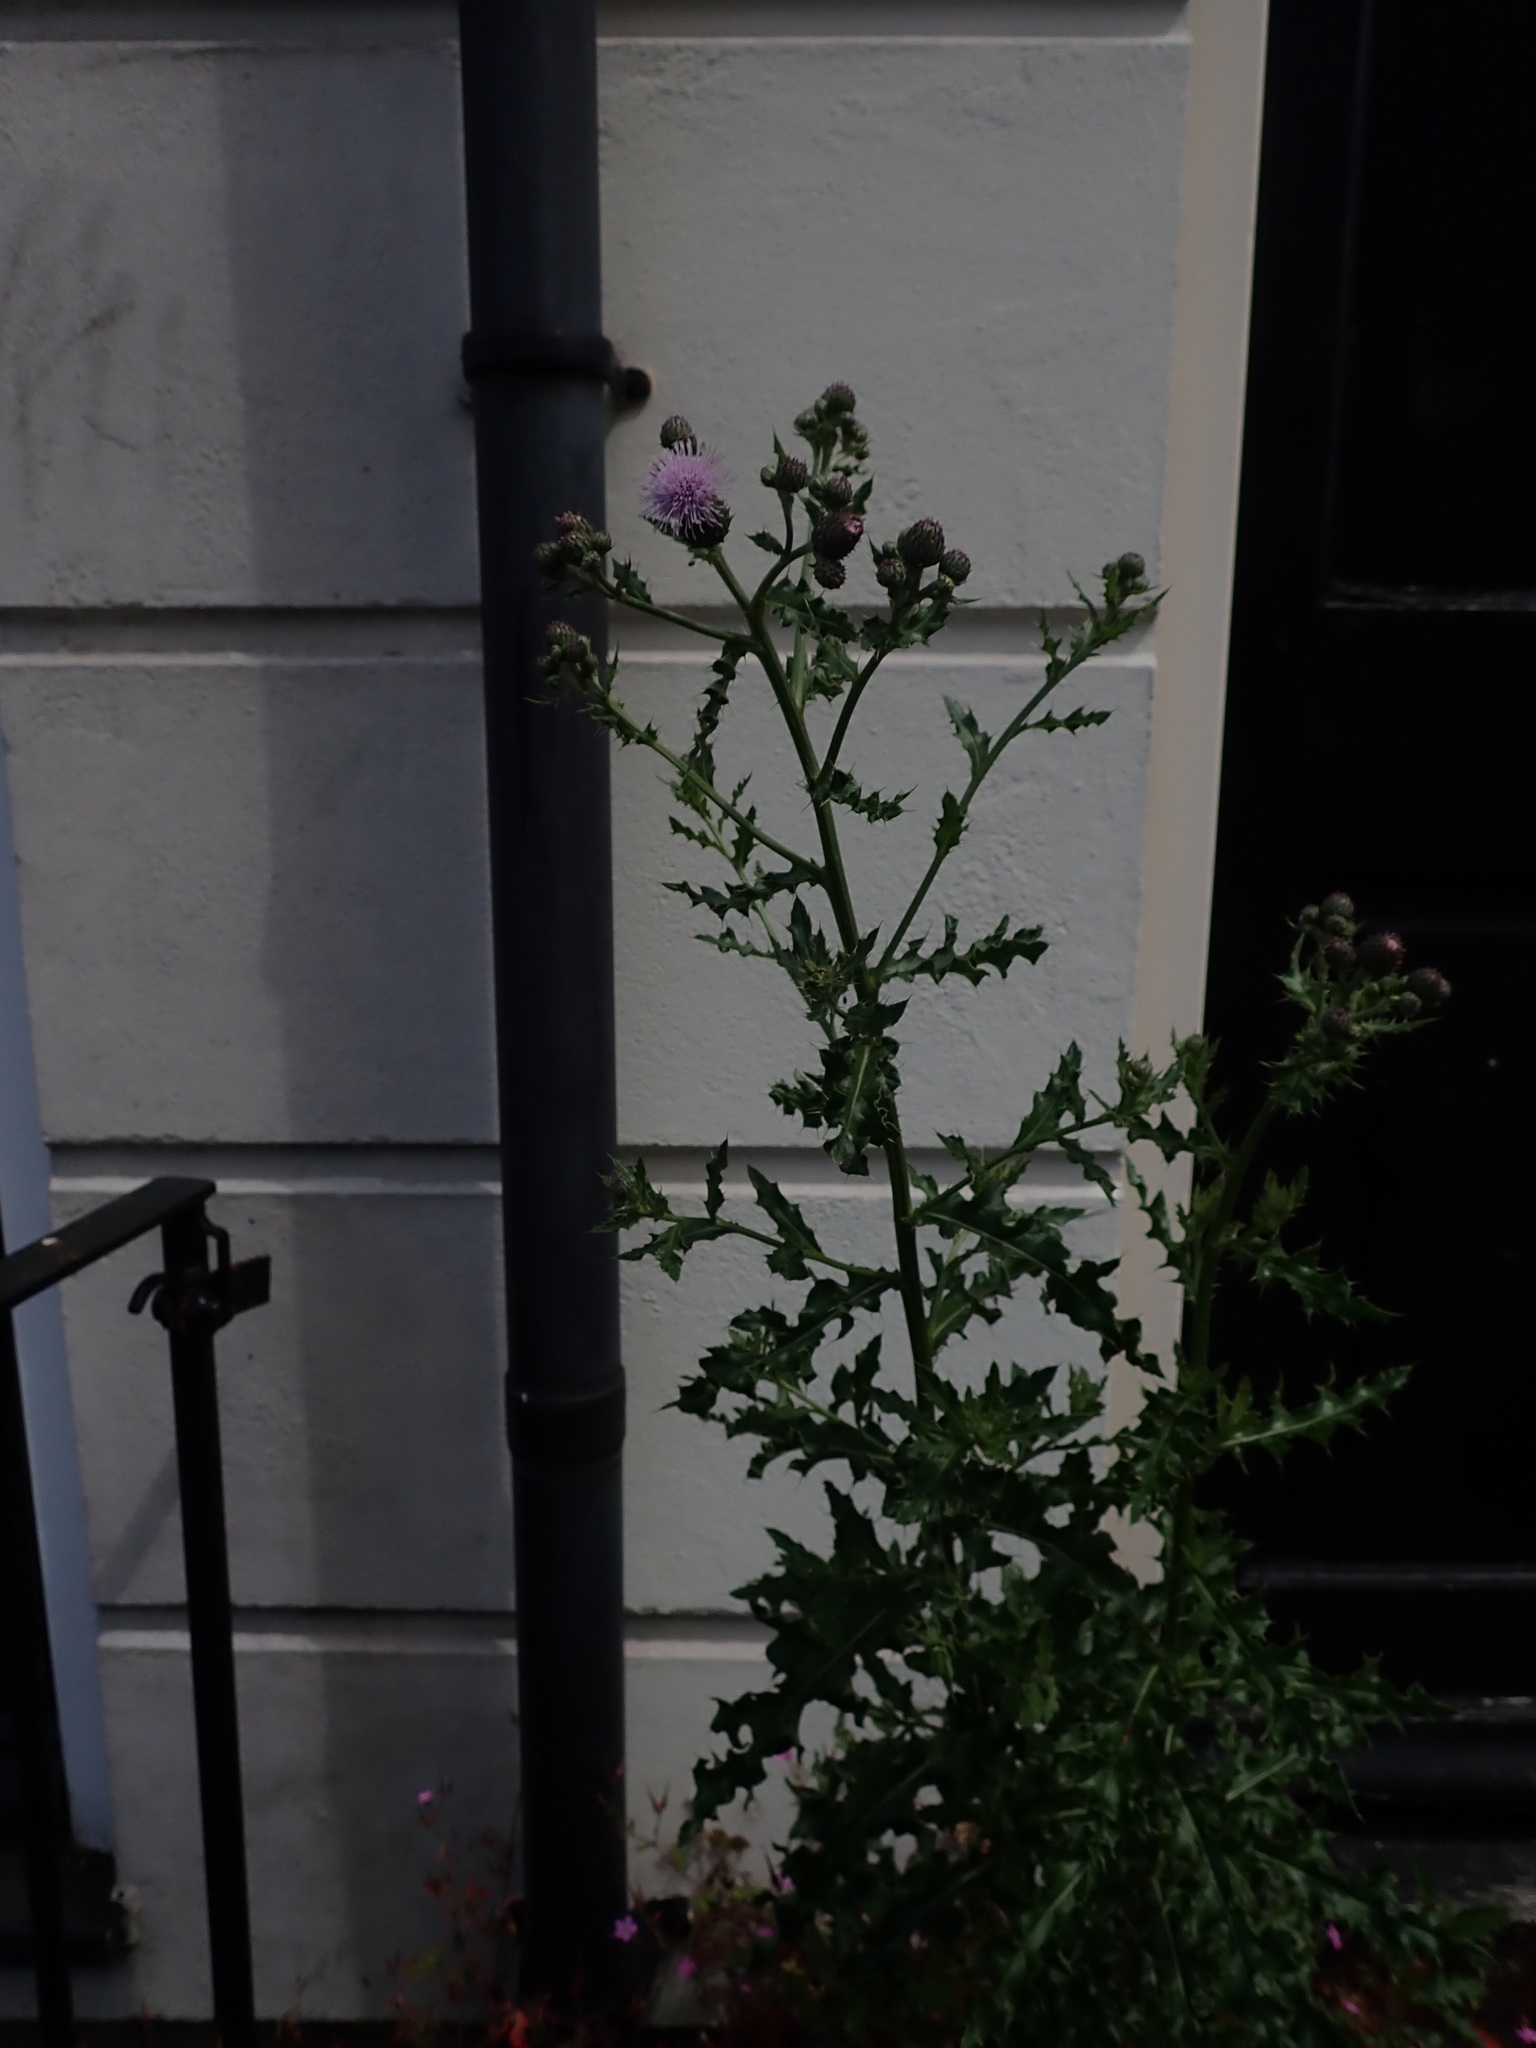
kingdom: Plantae
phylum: Tracheophyta
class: Magnoliopsida
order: Asterales
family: Asteraceae
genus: Cirsium
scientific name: Cirsium arvense
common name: Creeping thistle
